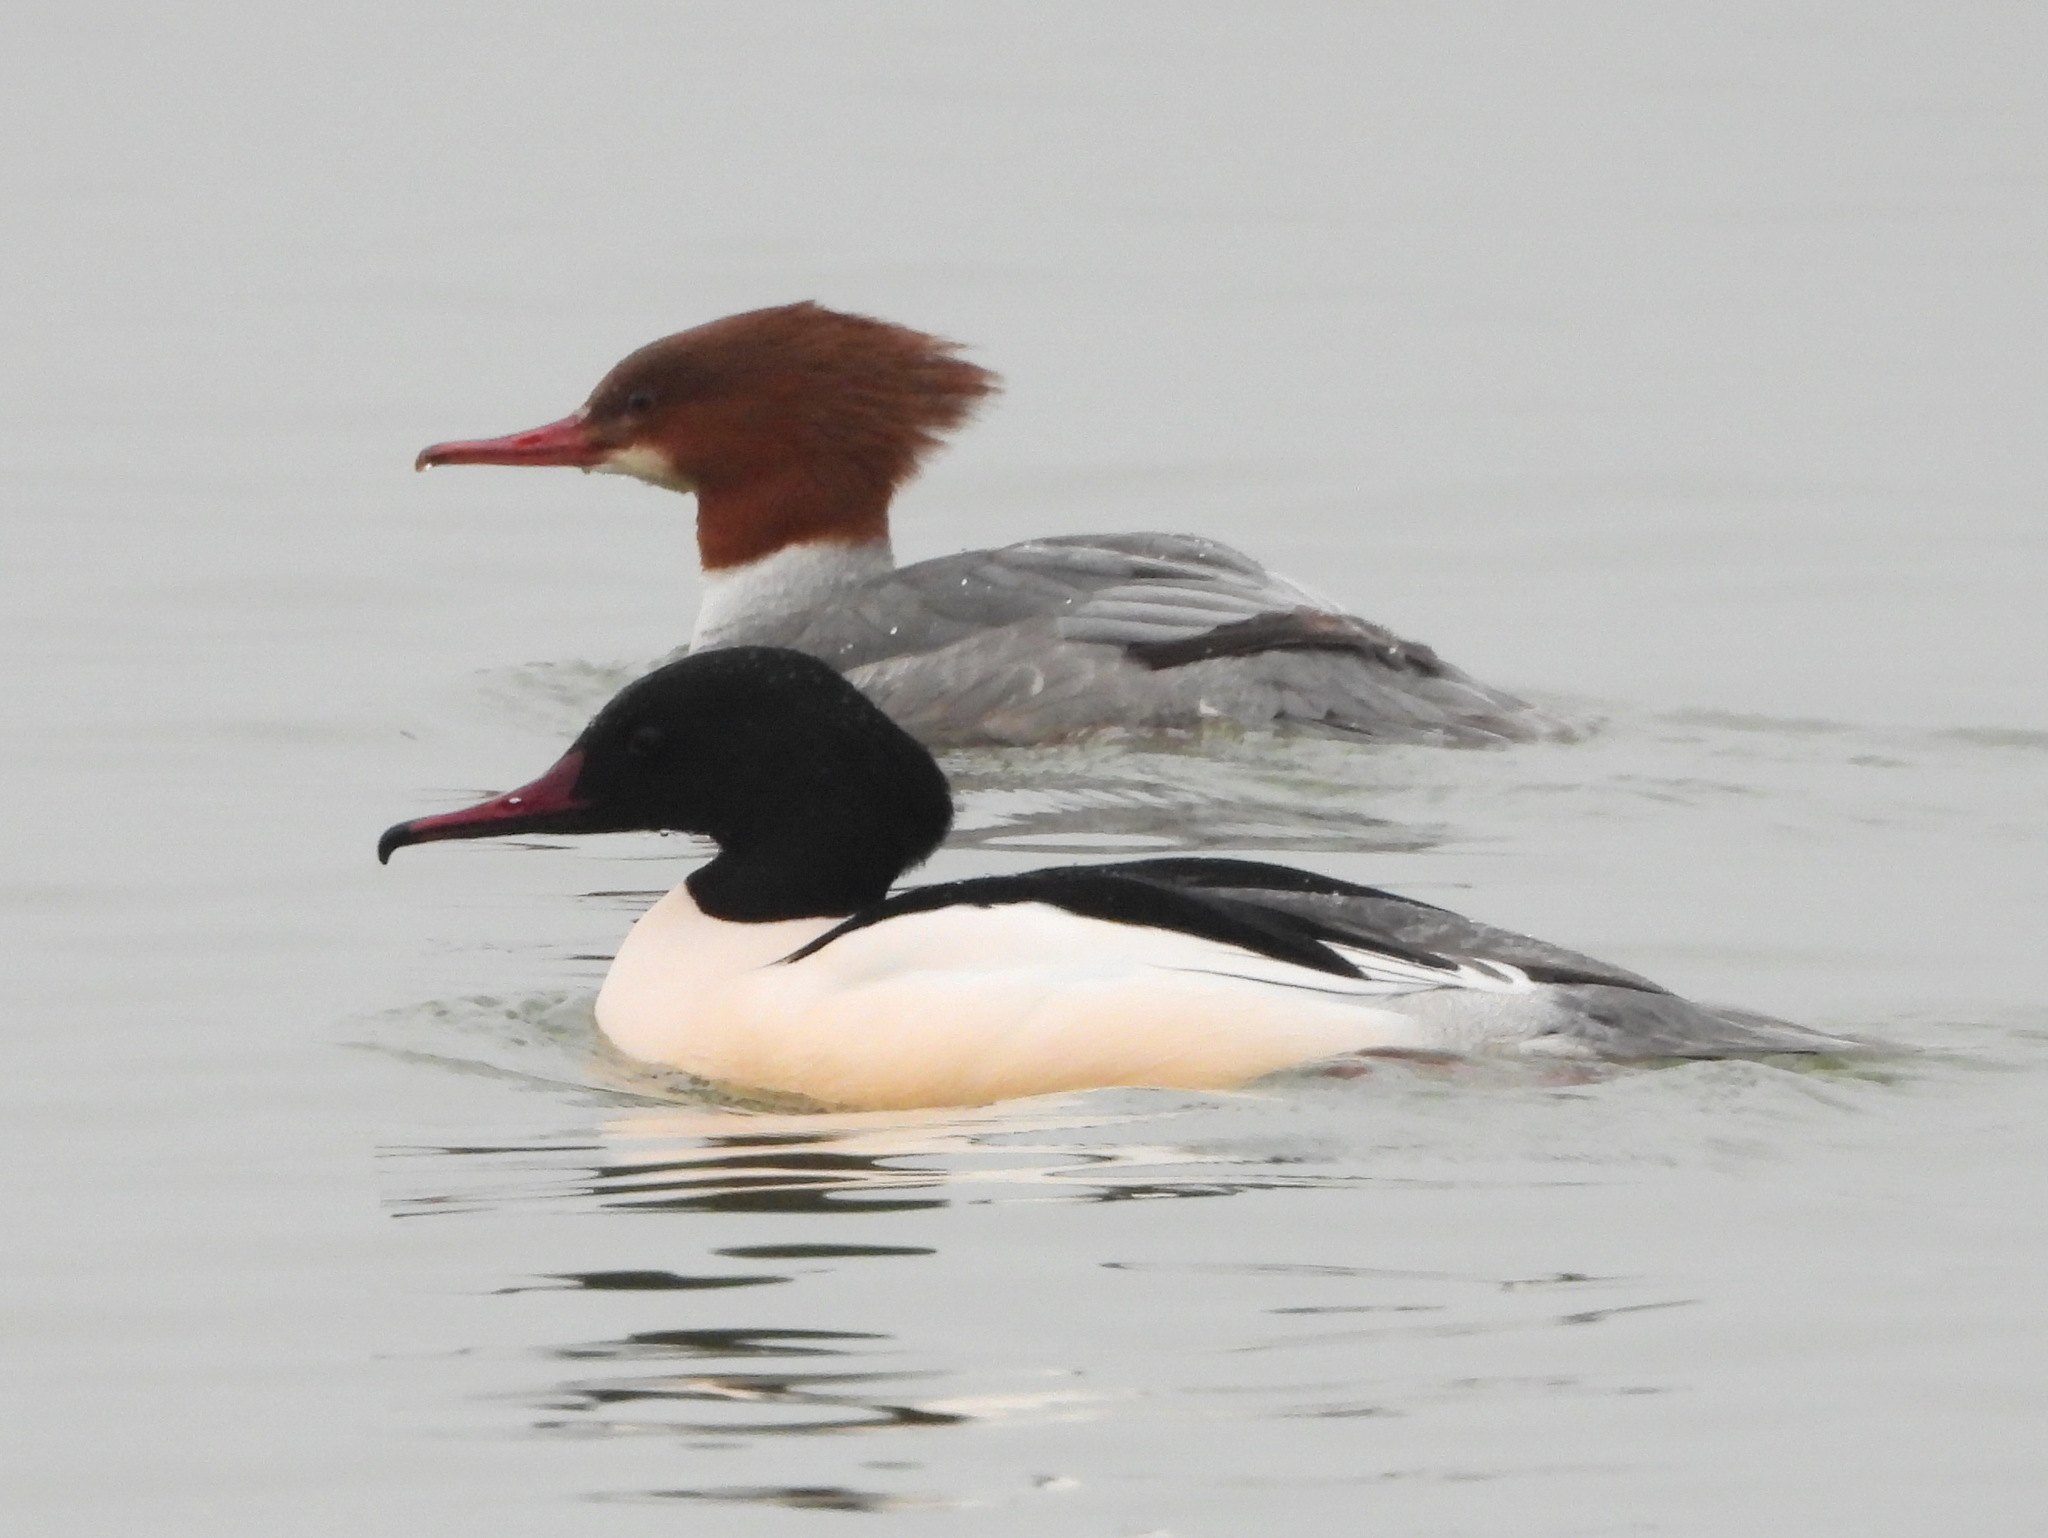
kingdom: Animalia
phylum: Chordata
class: Aves
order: Anseriformes
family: Anatidae
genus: Mergus
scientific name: Mergus merganser
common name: Common merganser
